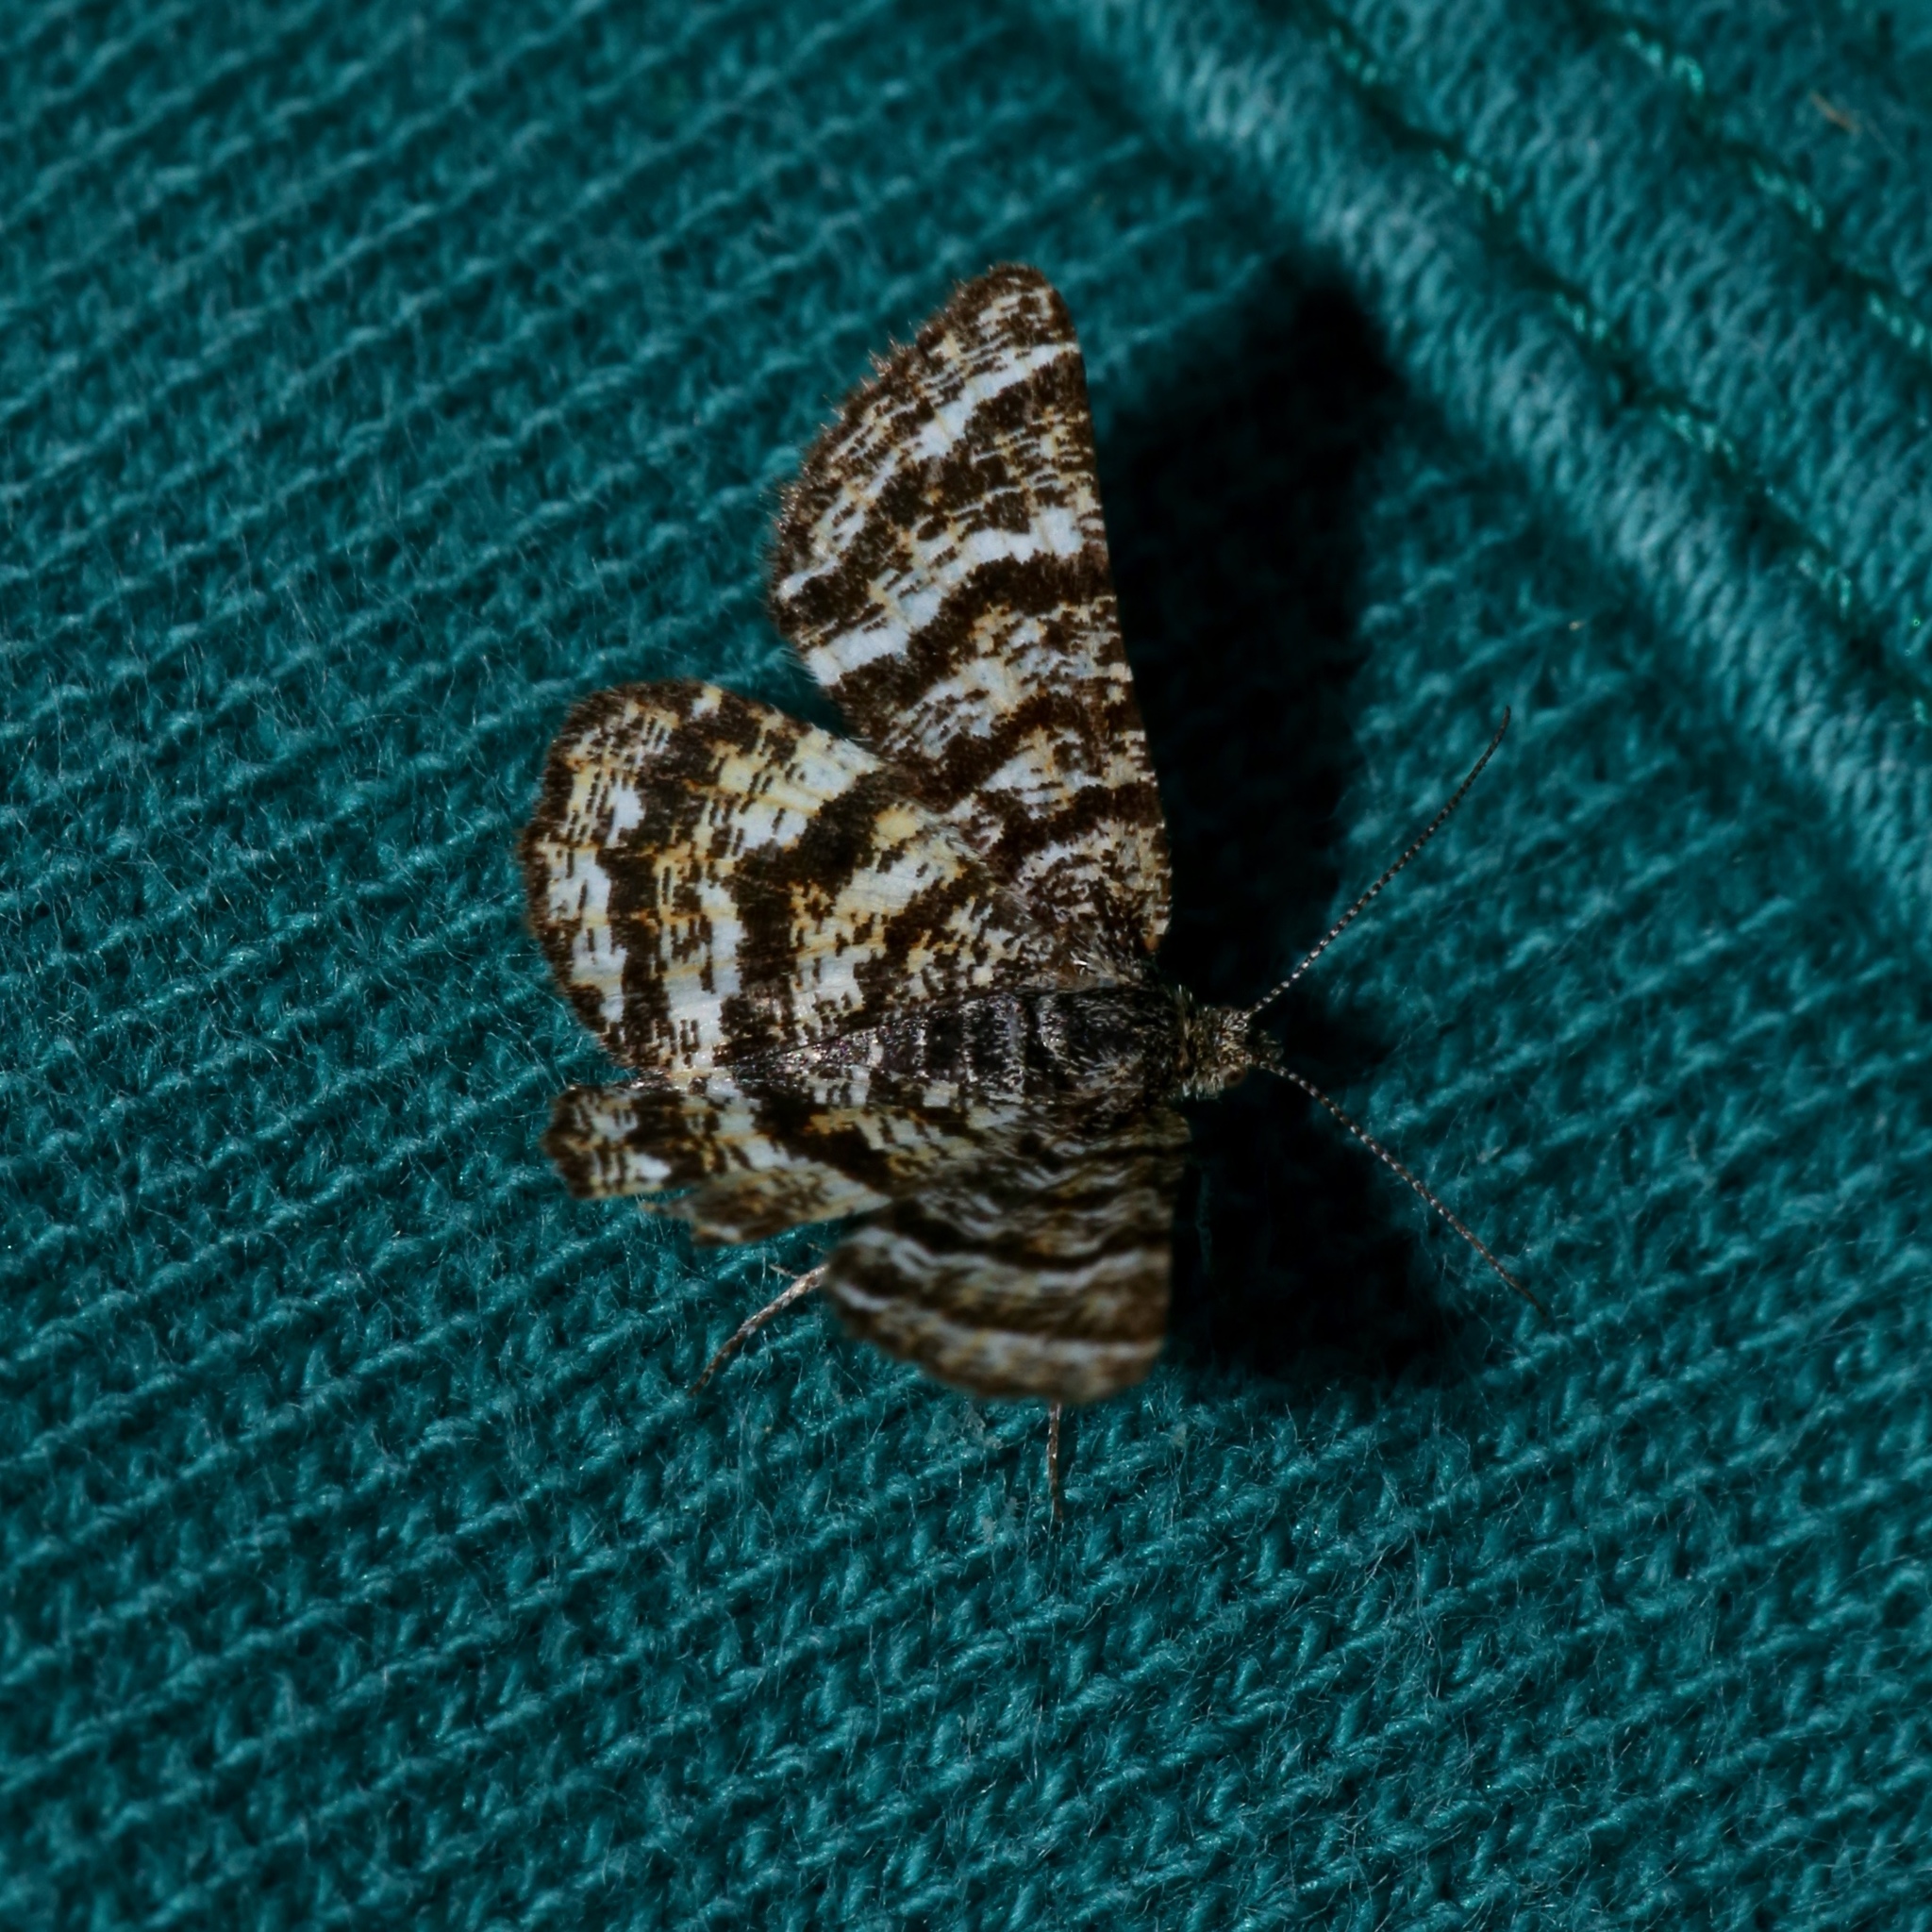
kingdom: Animalia
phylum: Arthropoda
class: Insecta
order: Lepidoptera
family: Geometridae
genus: Macaria
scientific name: Macaria truncataria
